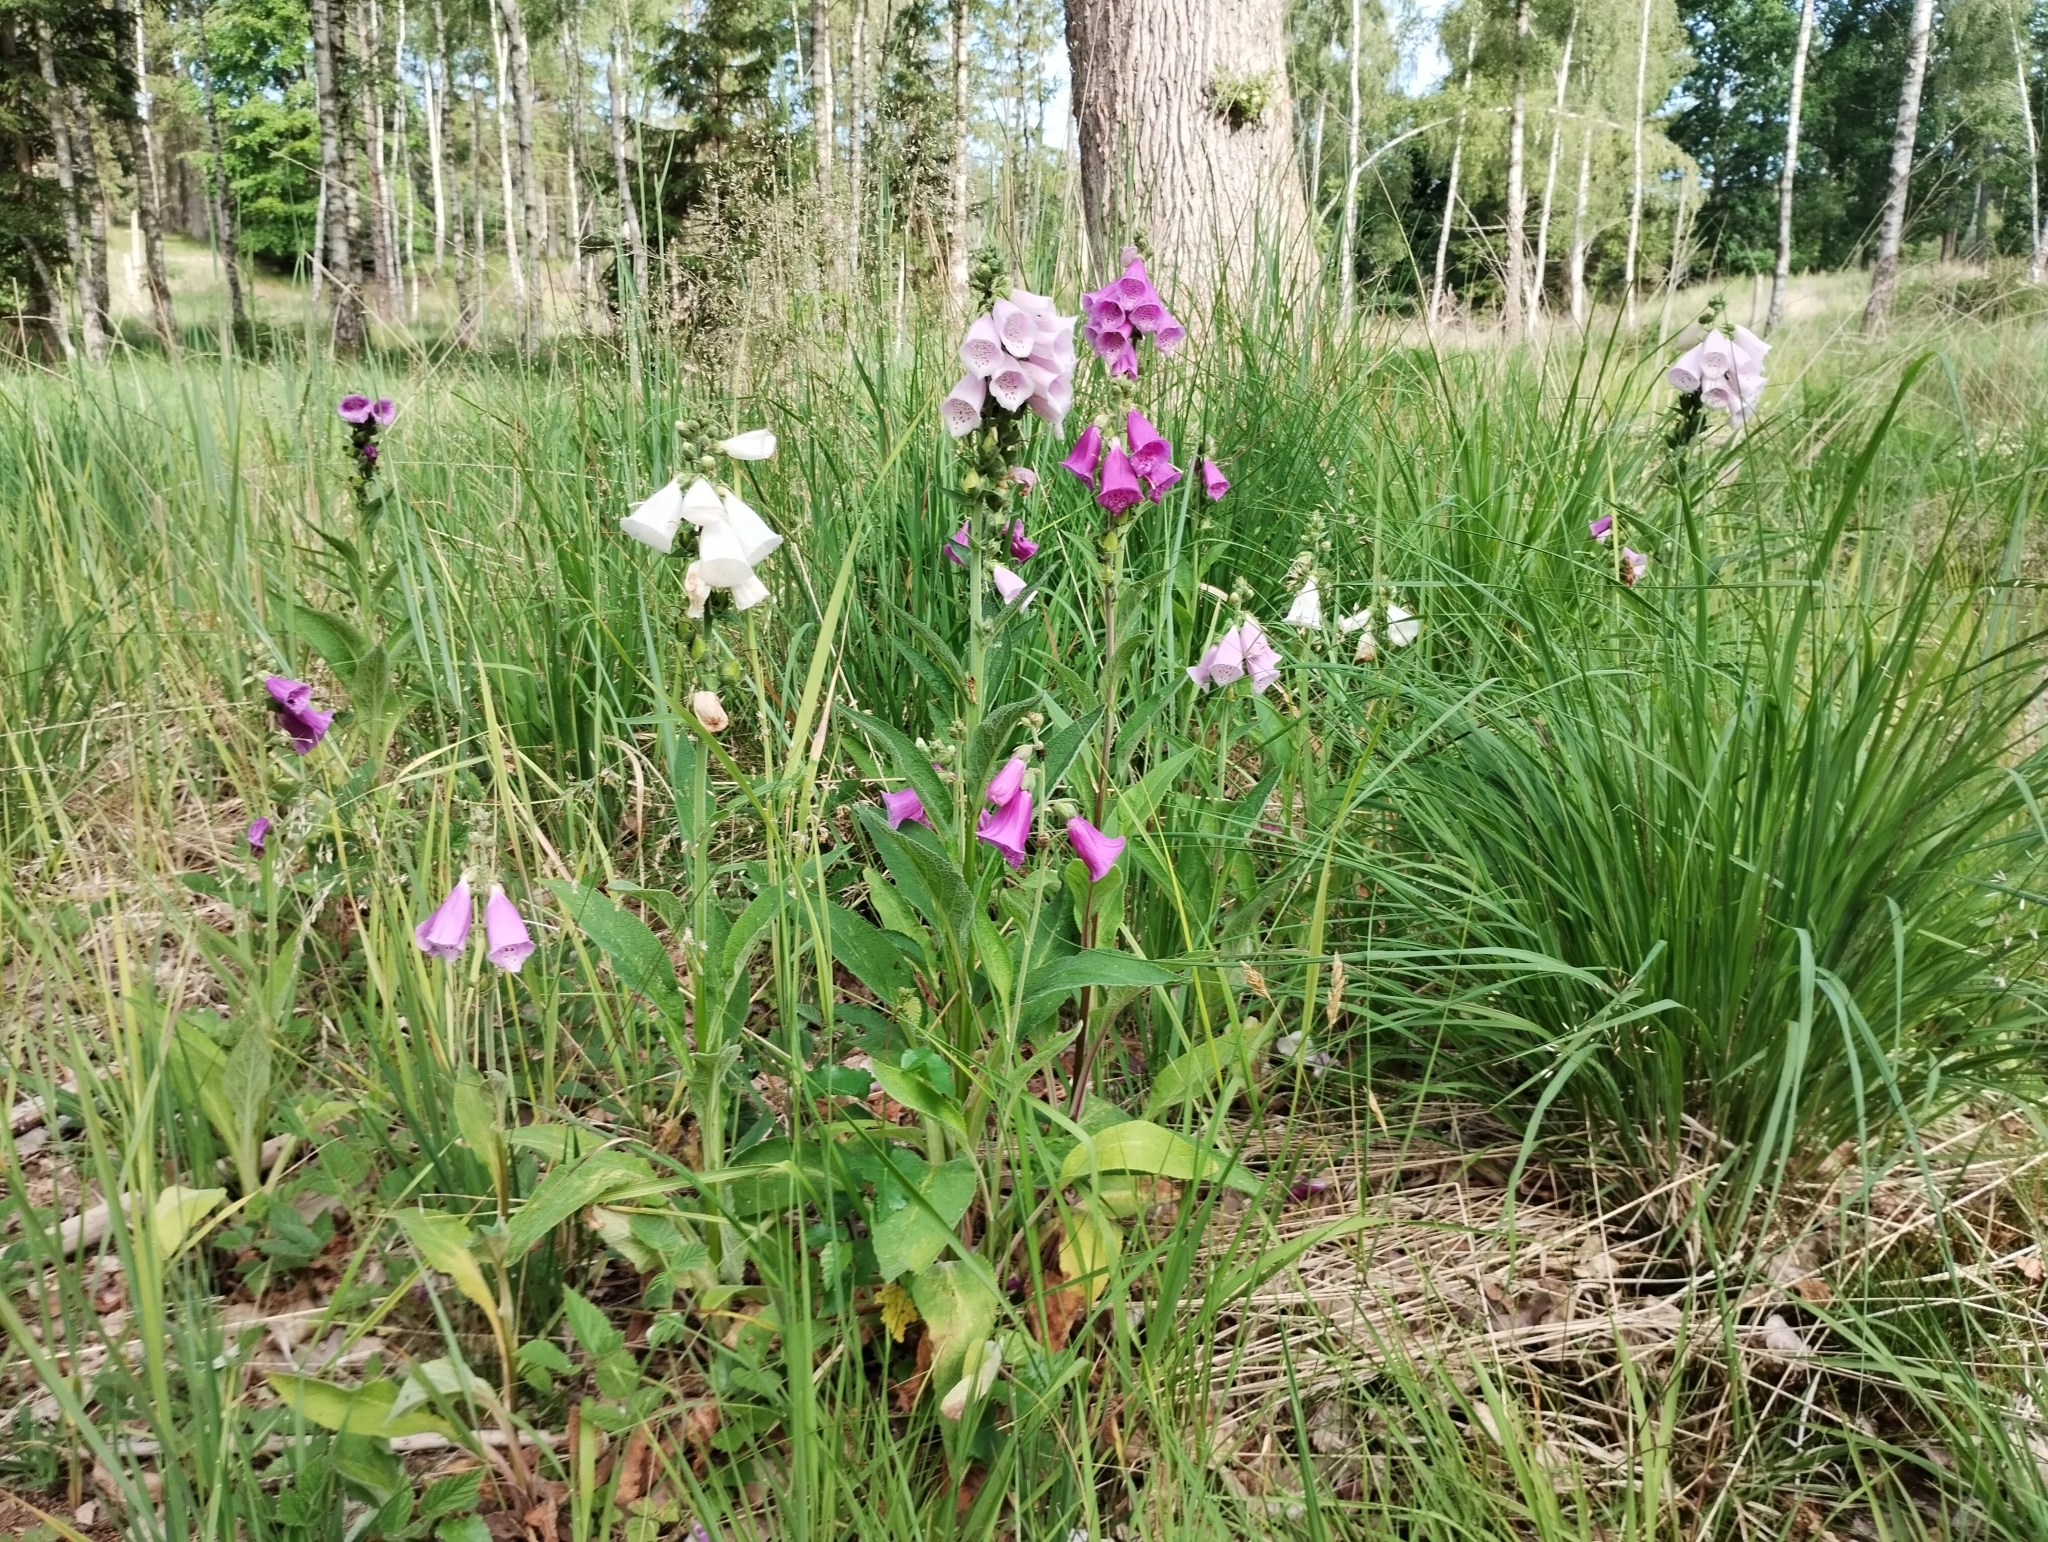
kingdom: Plantae
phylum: Tracheophyta
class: Magnoliopsida
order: Lamiales
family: Plantaginaceae
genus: Digitalis
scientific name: Digitalis purpurea
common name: Foxglove
